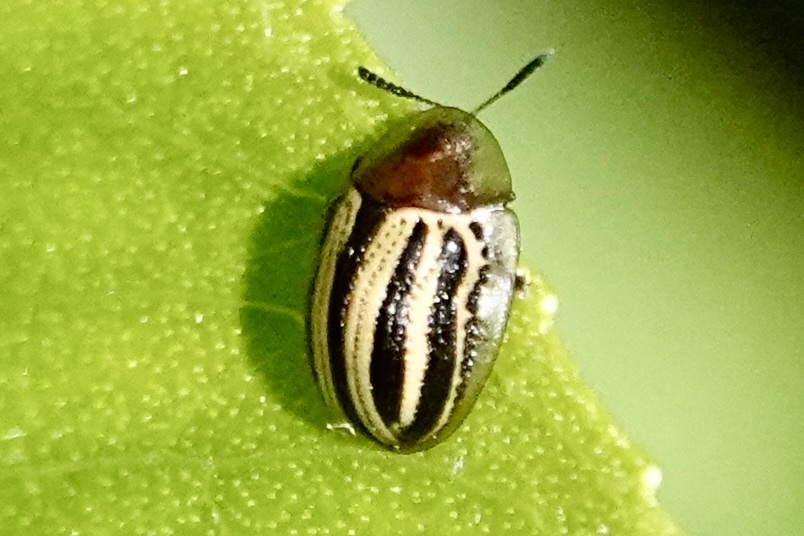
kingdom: Animalia
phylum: Arthropoda
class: Insecta
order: Coleoptera
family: Chrysomelidae
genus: Agroiconota
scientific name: Agroiconota bivittata
